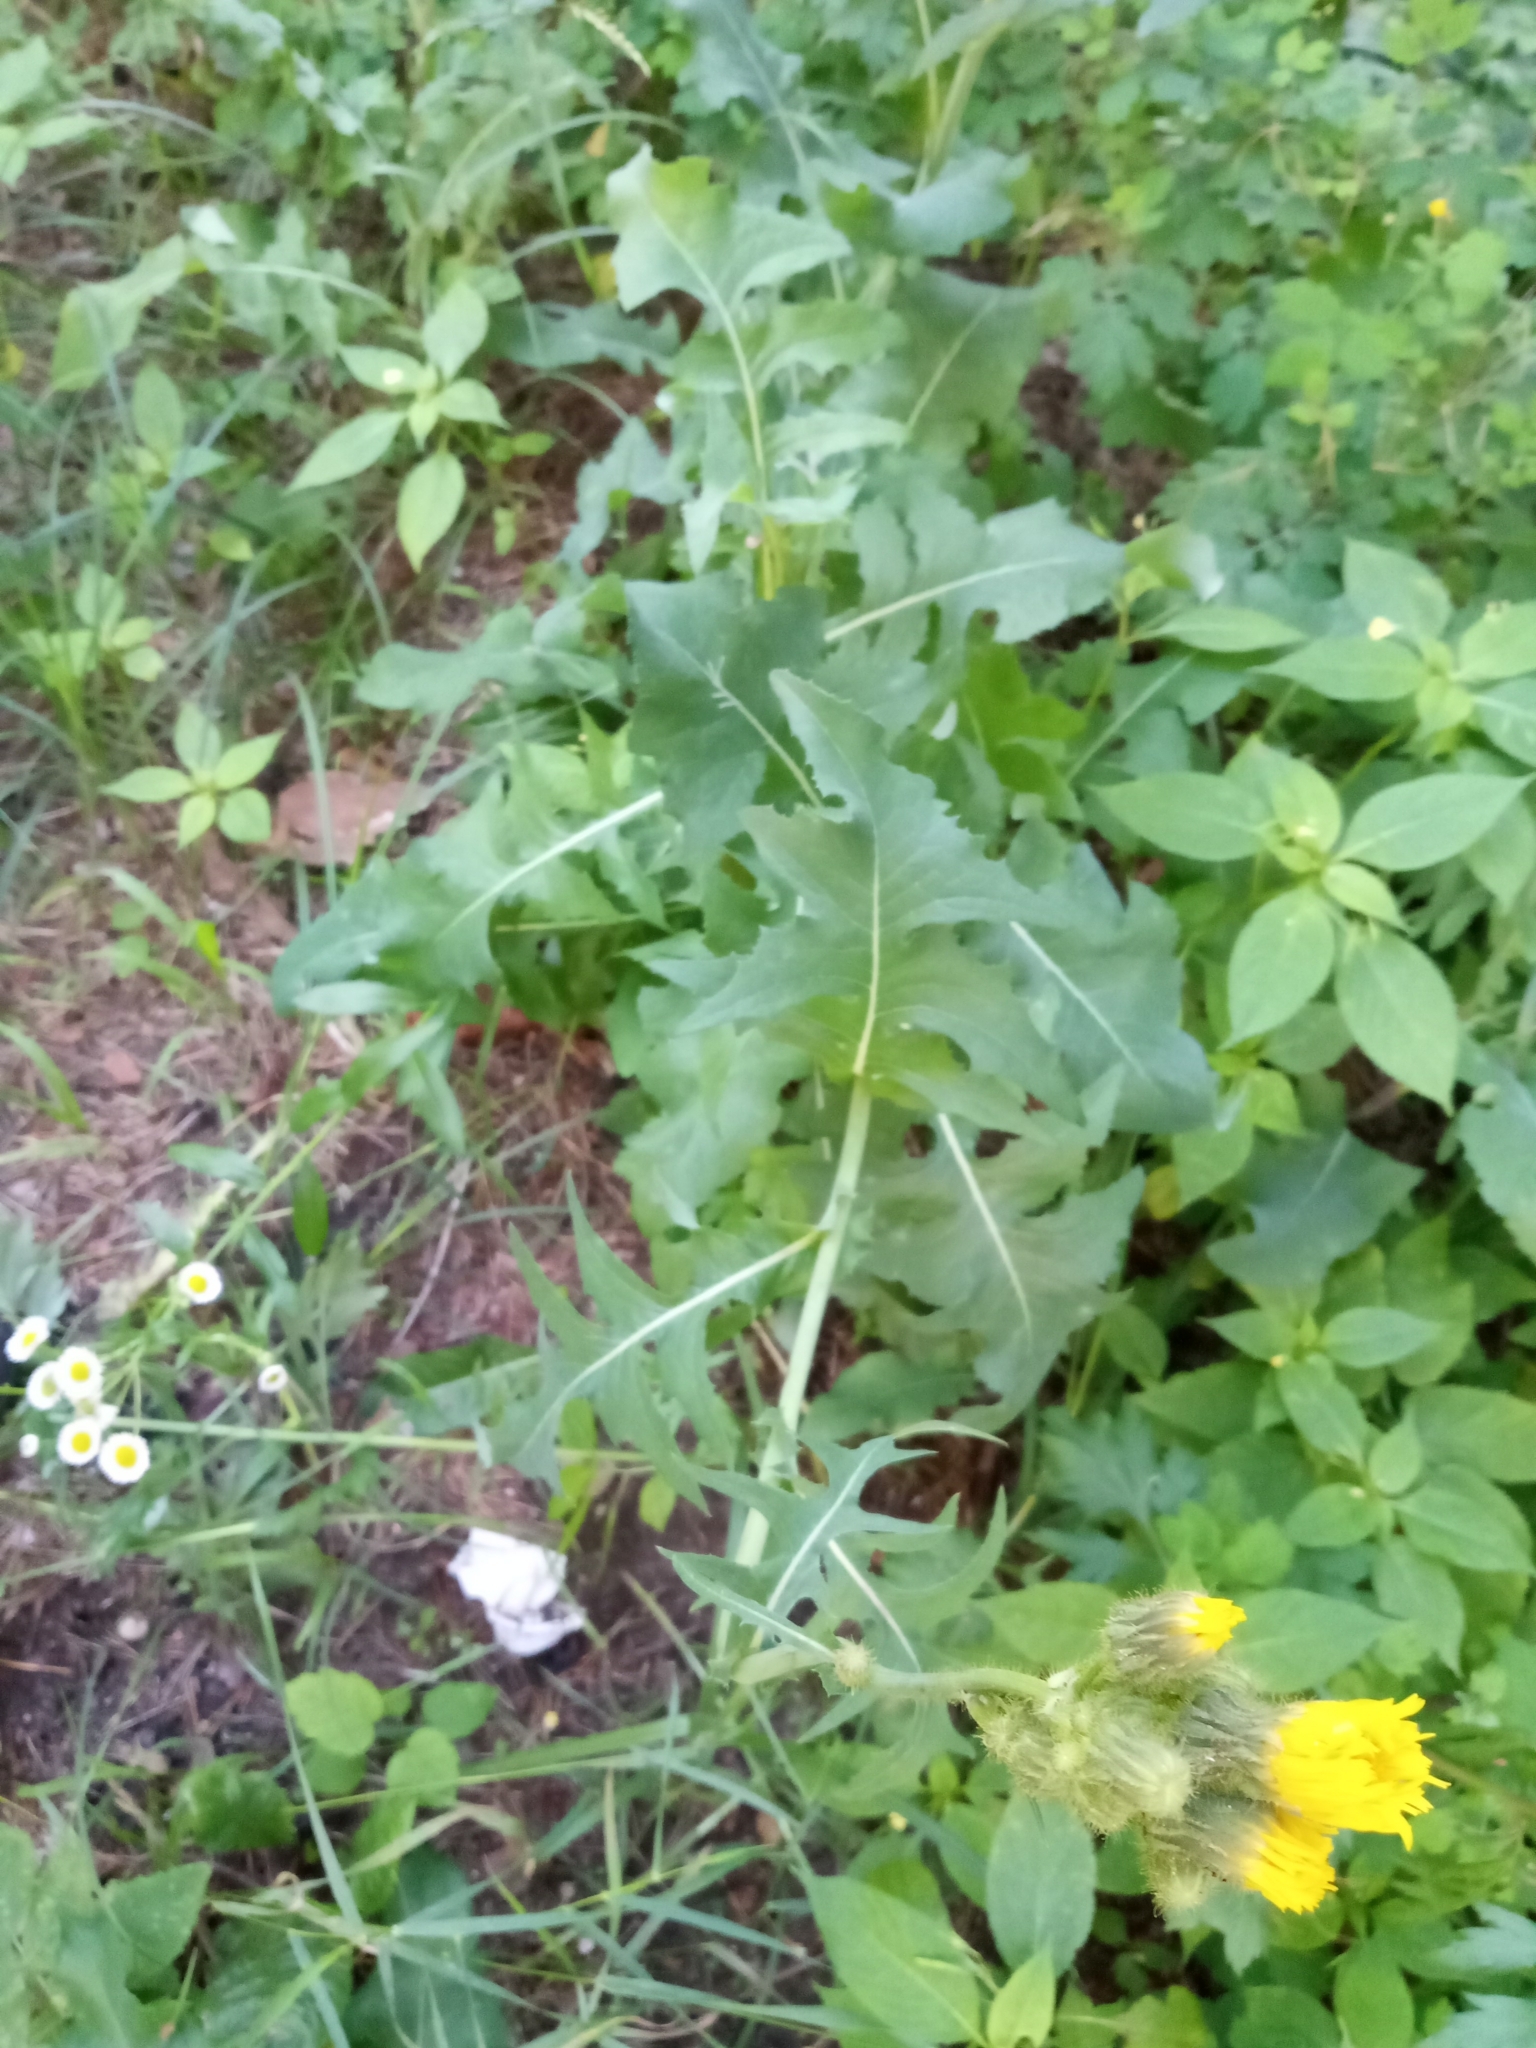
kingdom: Plantae
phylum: Tracheophyta
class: Magnoliopsida
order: Asterales
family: Asteraceae
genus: Sonchus
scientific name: Sonchus arvensis
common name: Perennial sow-thistle
